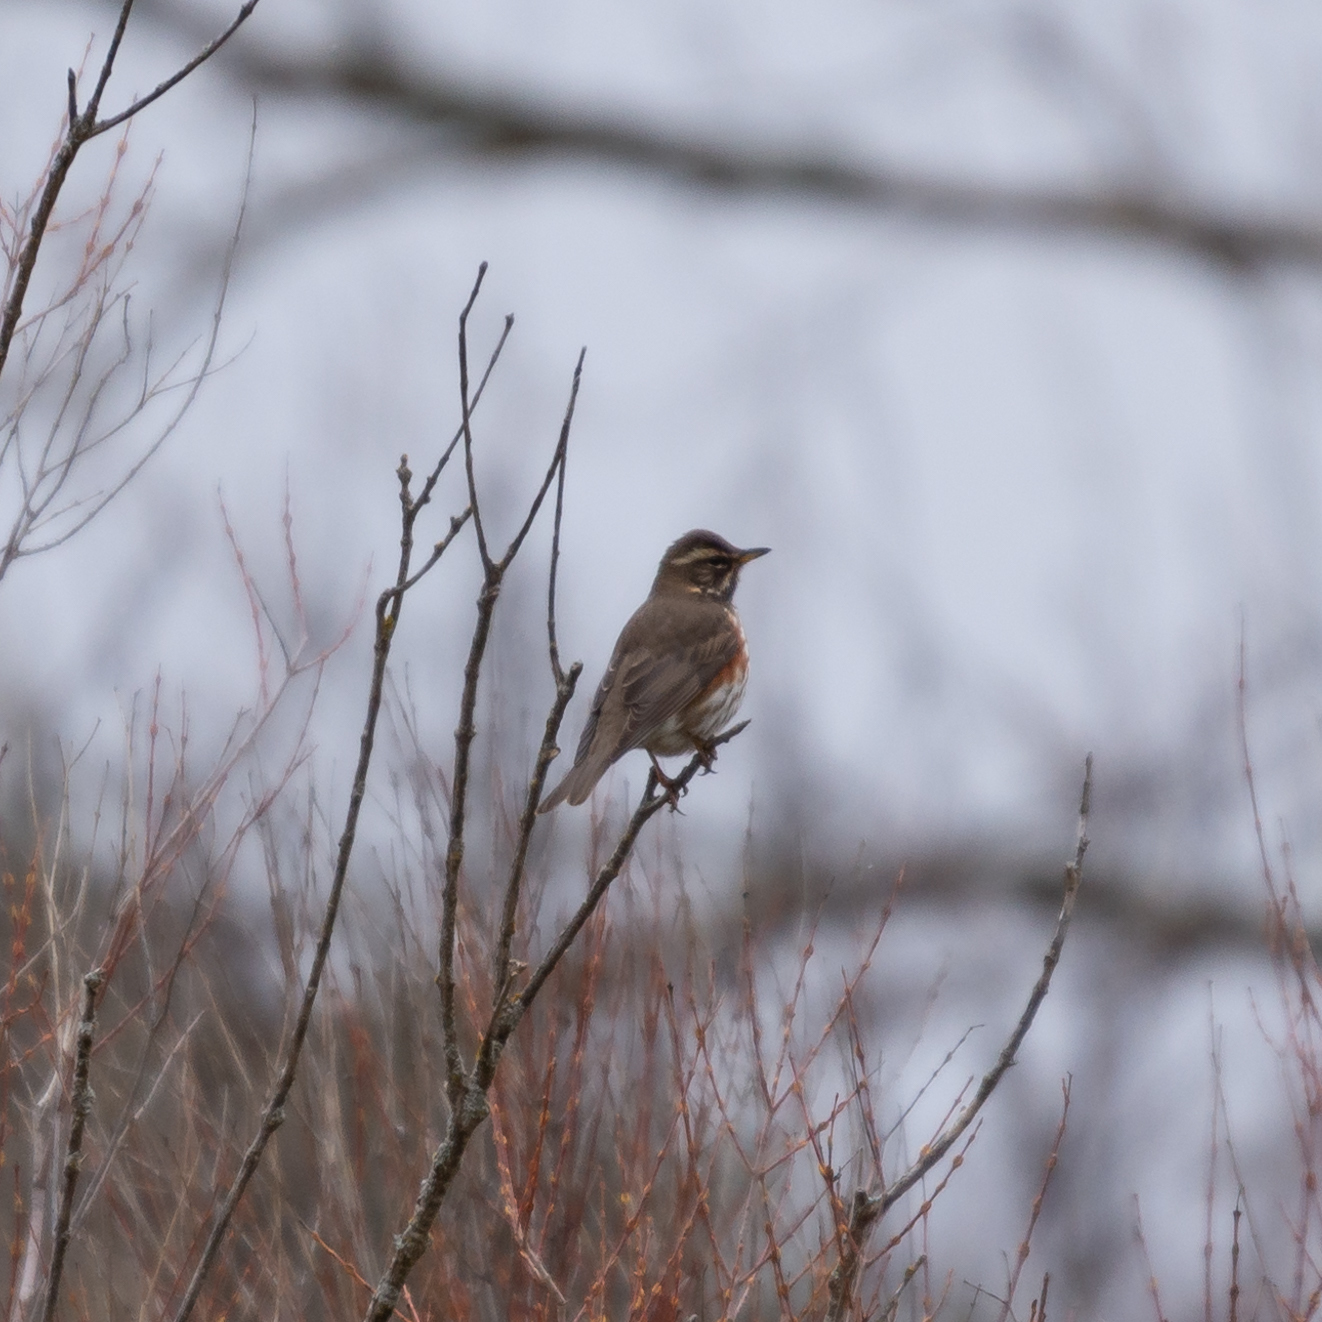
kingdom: Animalia
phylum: Chordata
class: Aves
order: Passeriformes
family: Turdidae
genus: Turdus
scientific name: Turdus iliacus
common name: Redwing
